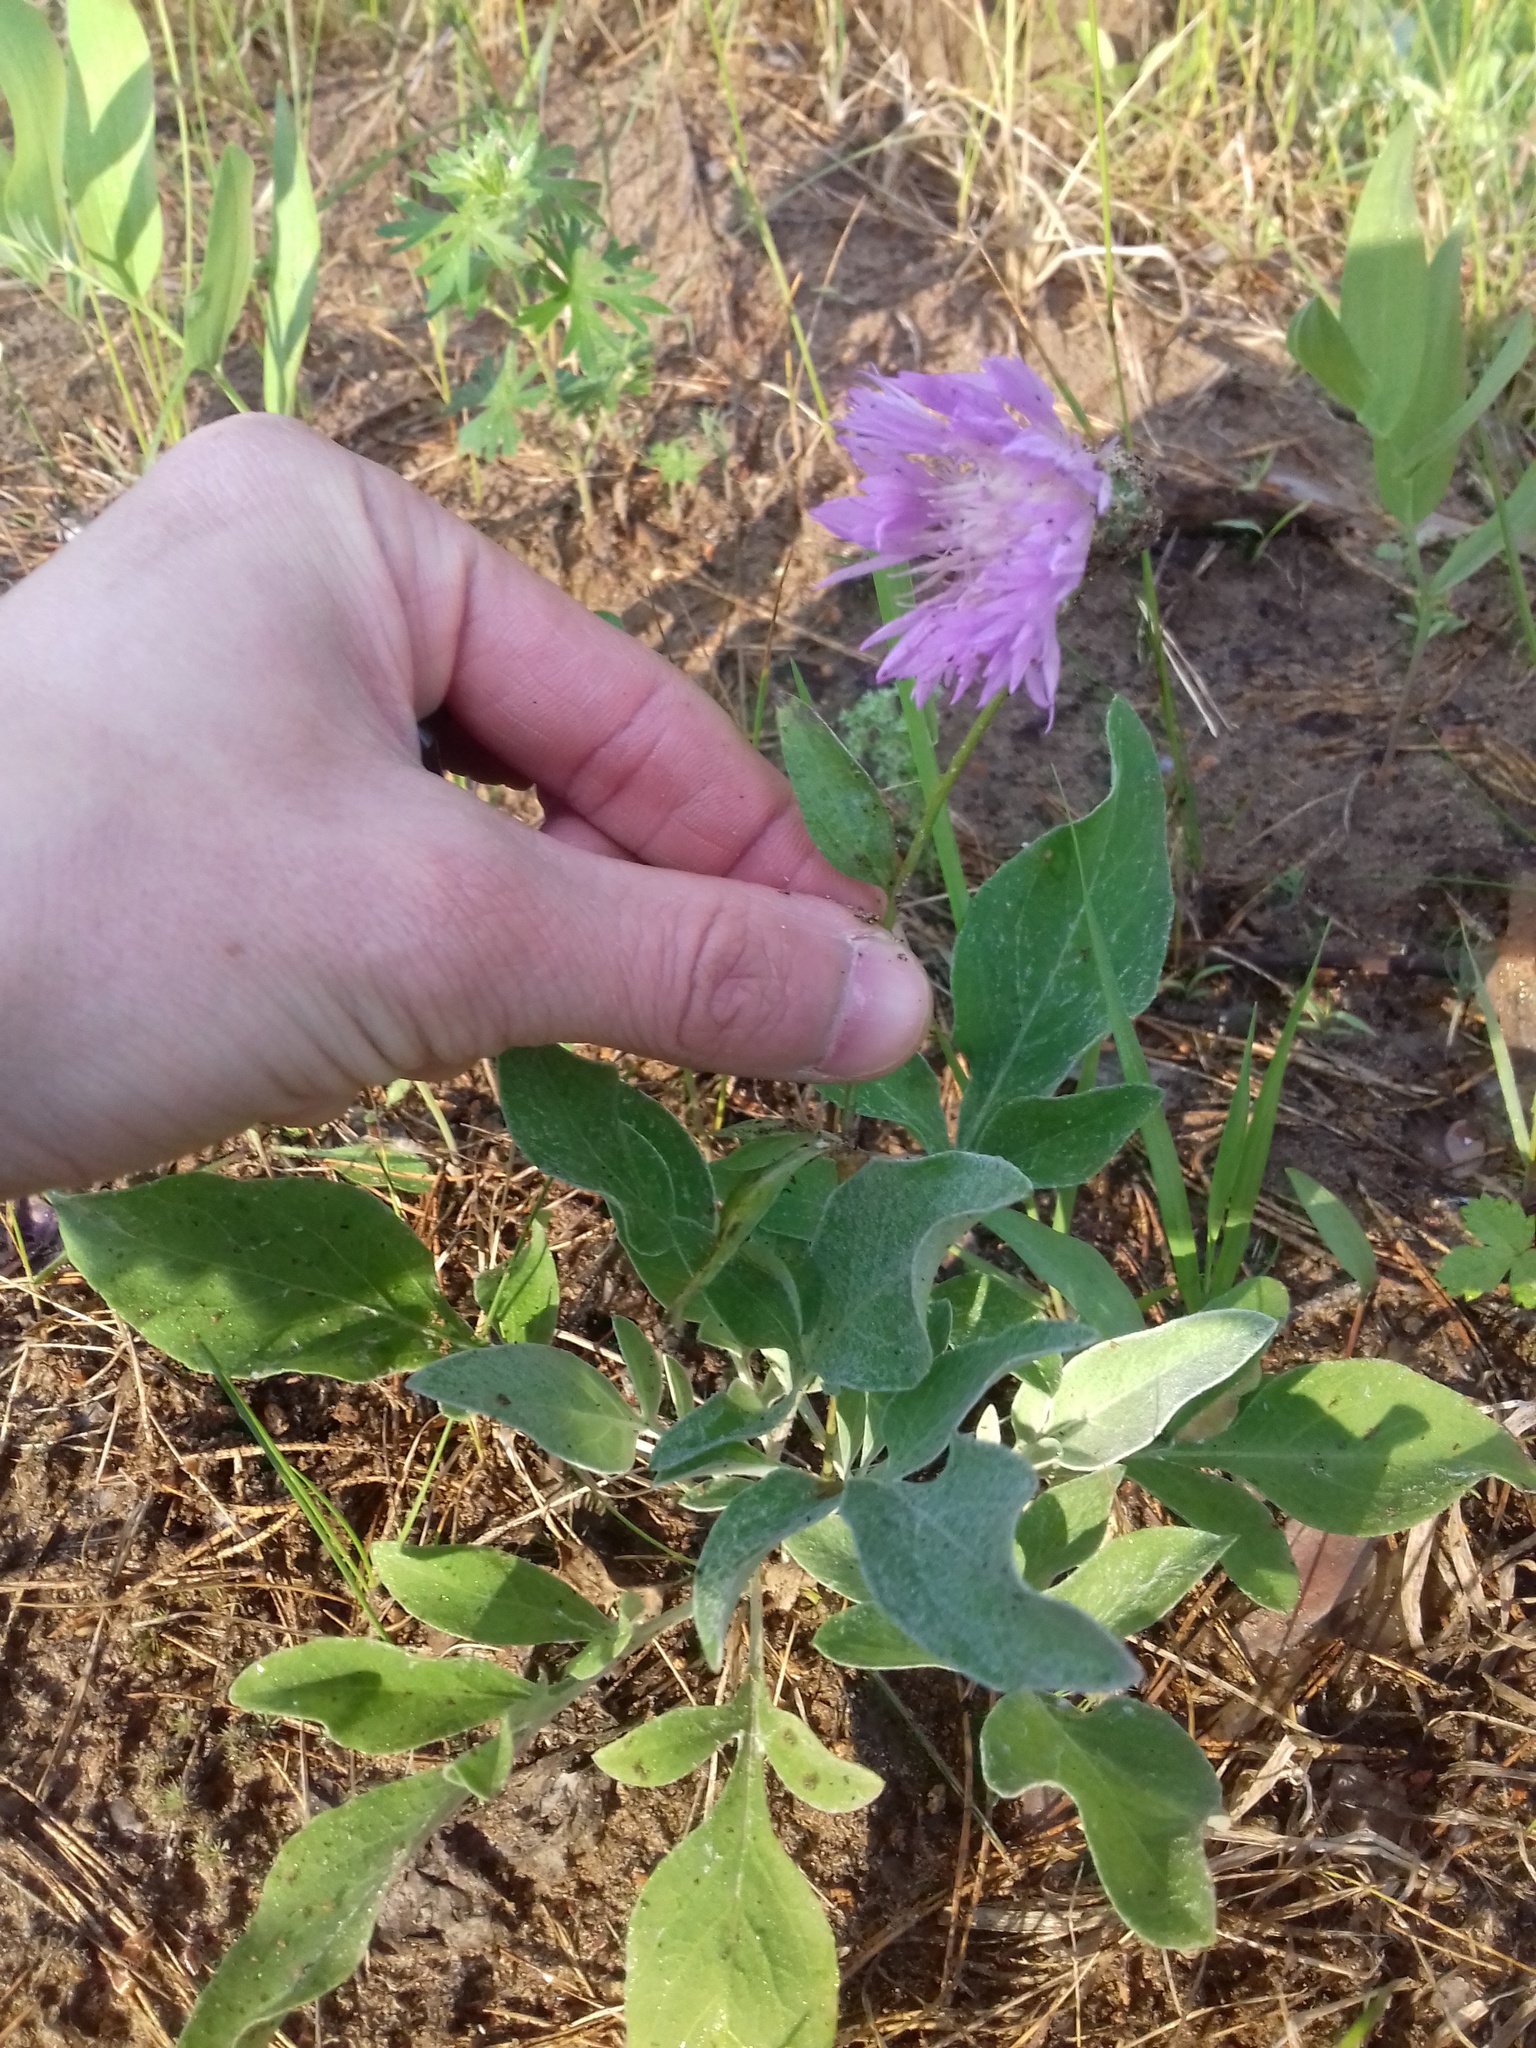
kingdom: Plantae
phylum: Tracheophyta
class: Magnoliopsida
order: Asterales
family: Asteraceae
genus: Psephellus
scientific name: Psephellus sumensis
